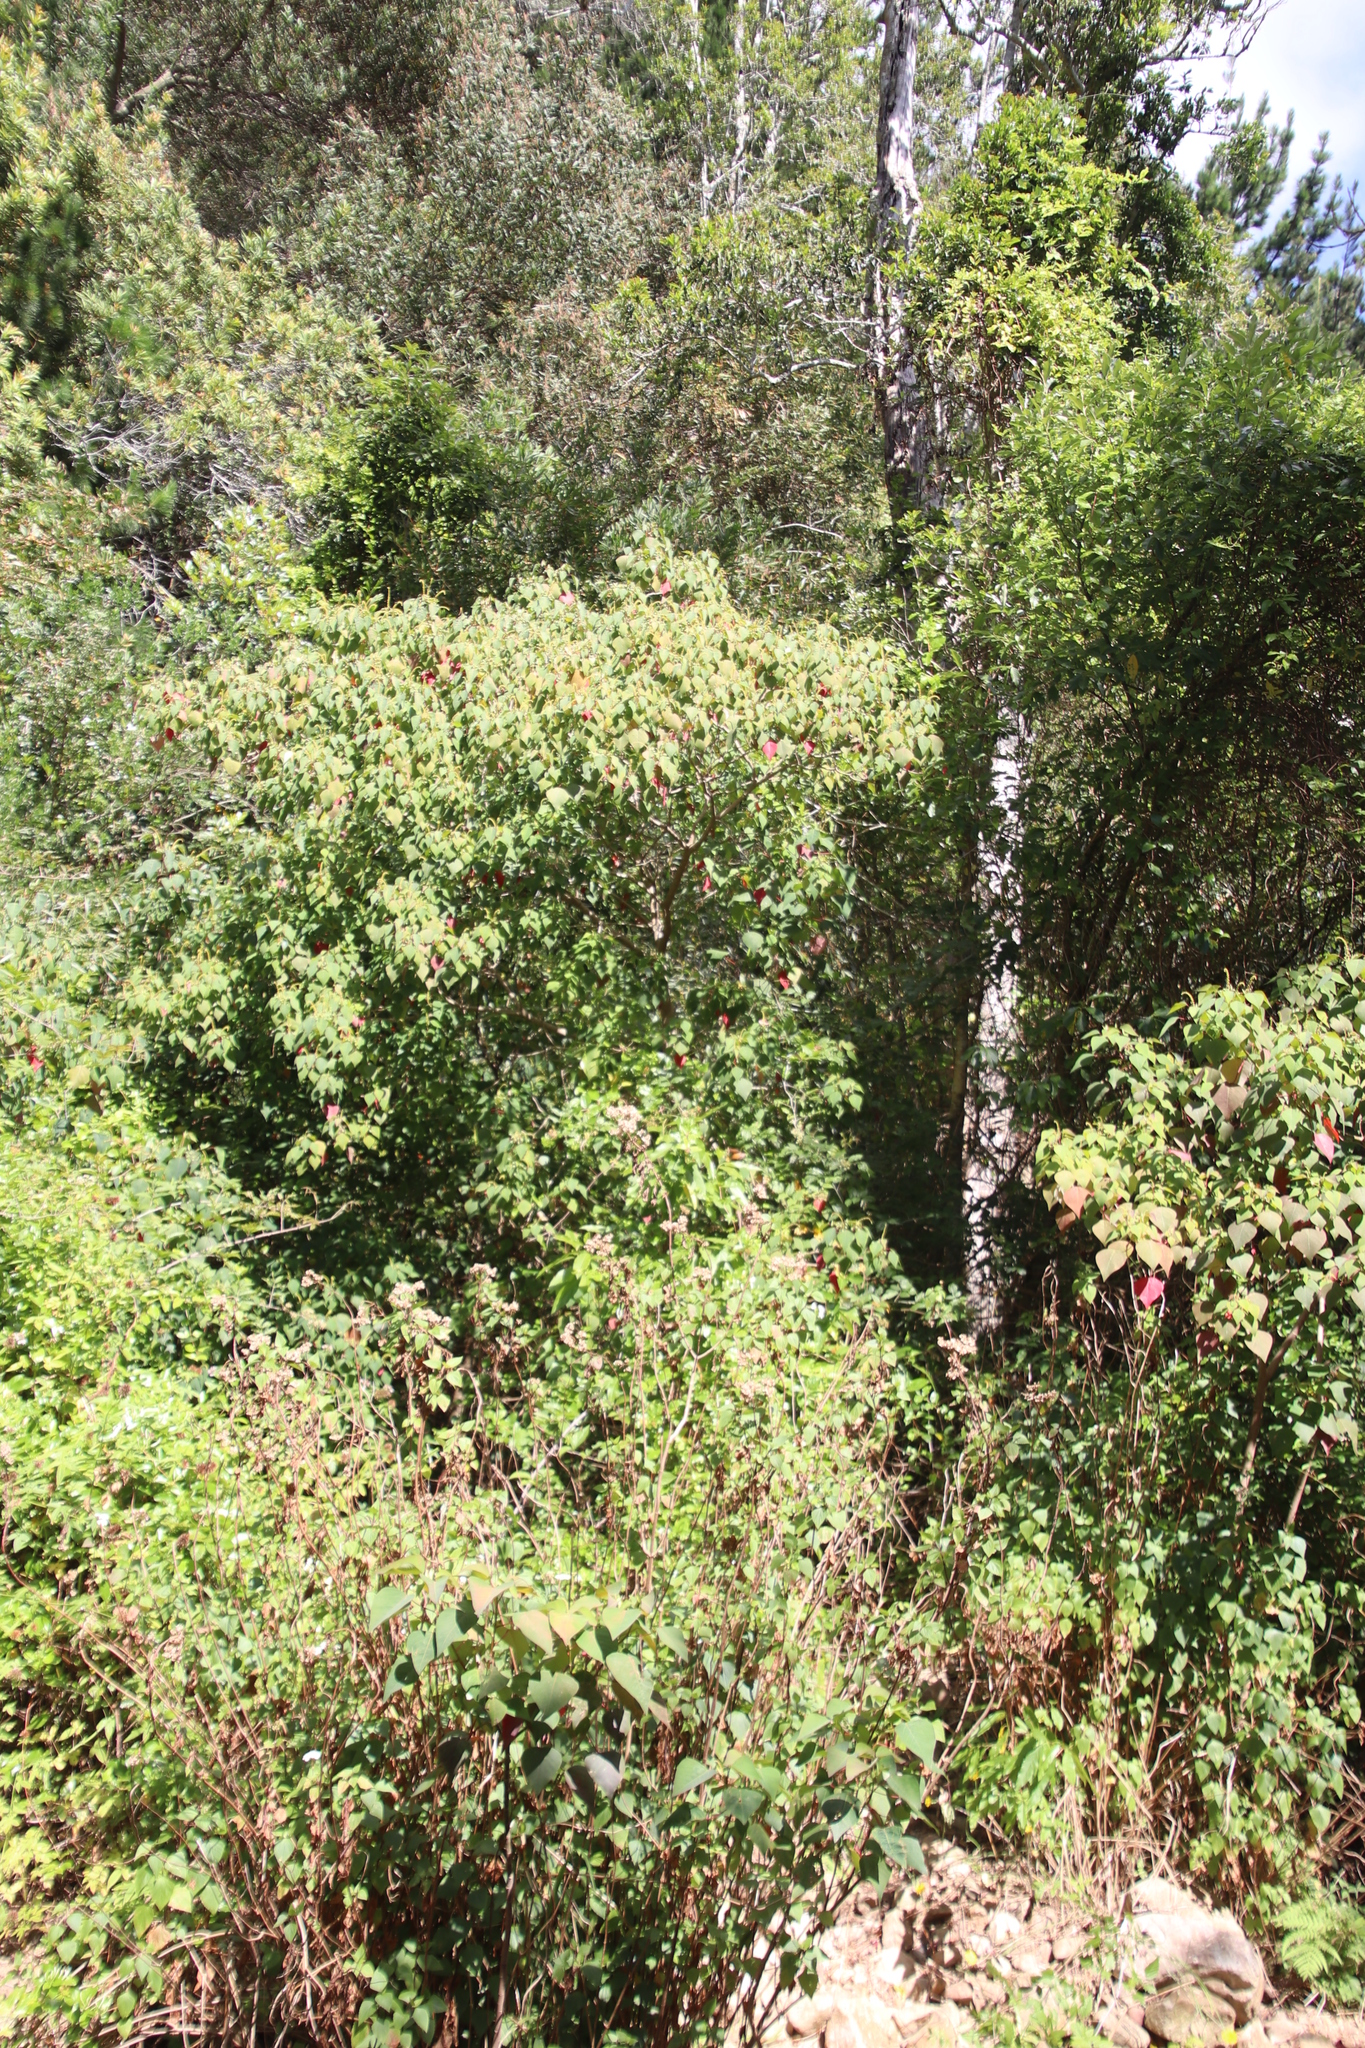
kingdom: Plantae
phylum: Tracheophyta
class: Magnoliopsida
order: Malpighiales
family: Euphorbiaceae
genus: Homalanthus
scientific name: Homalanthus populifolius
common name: Queensland poplar
